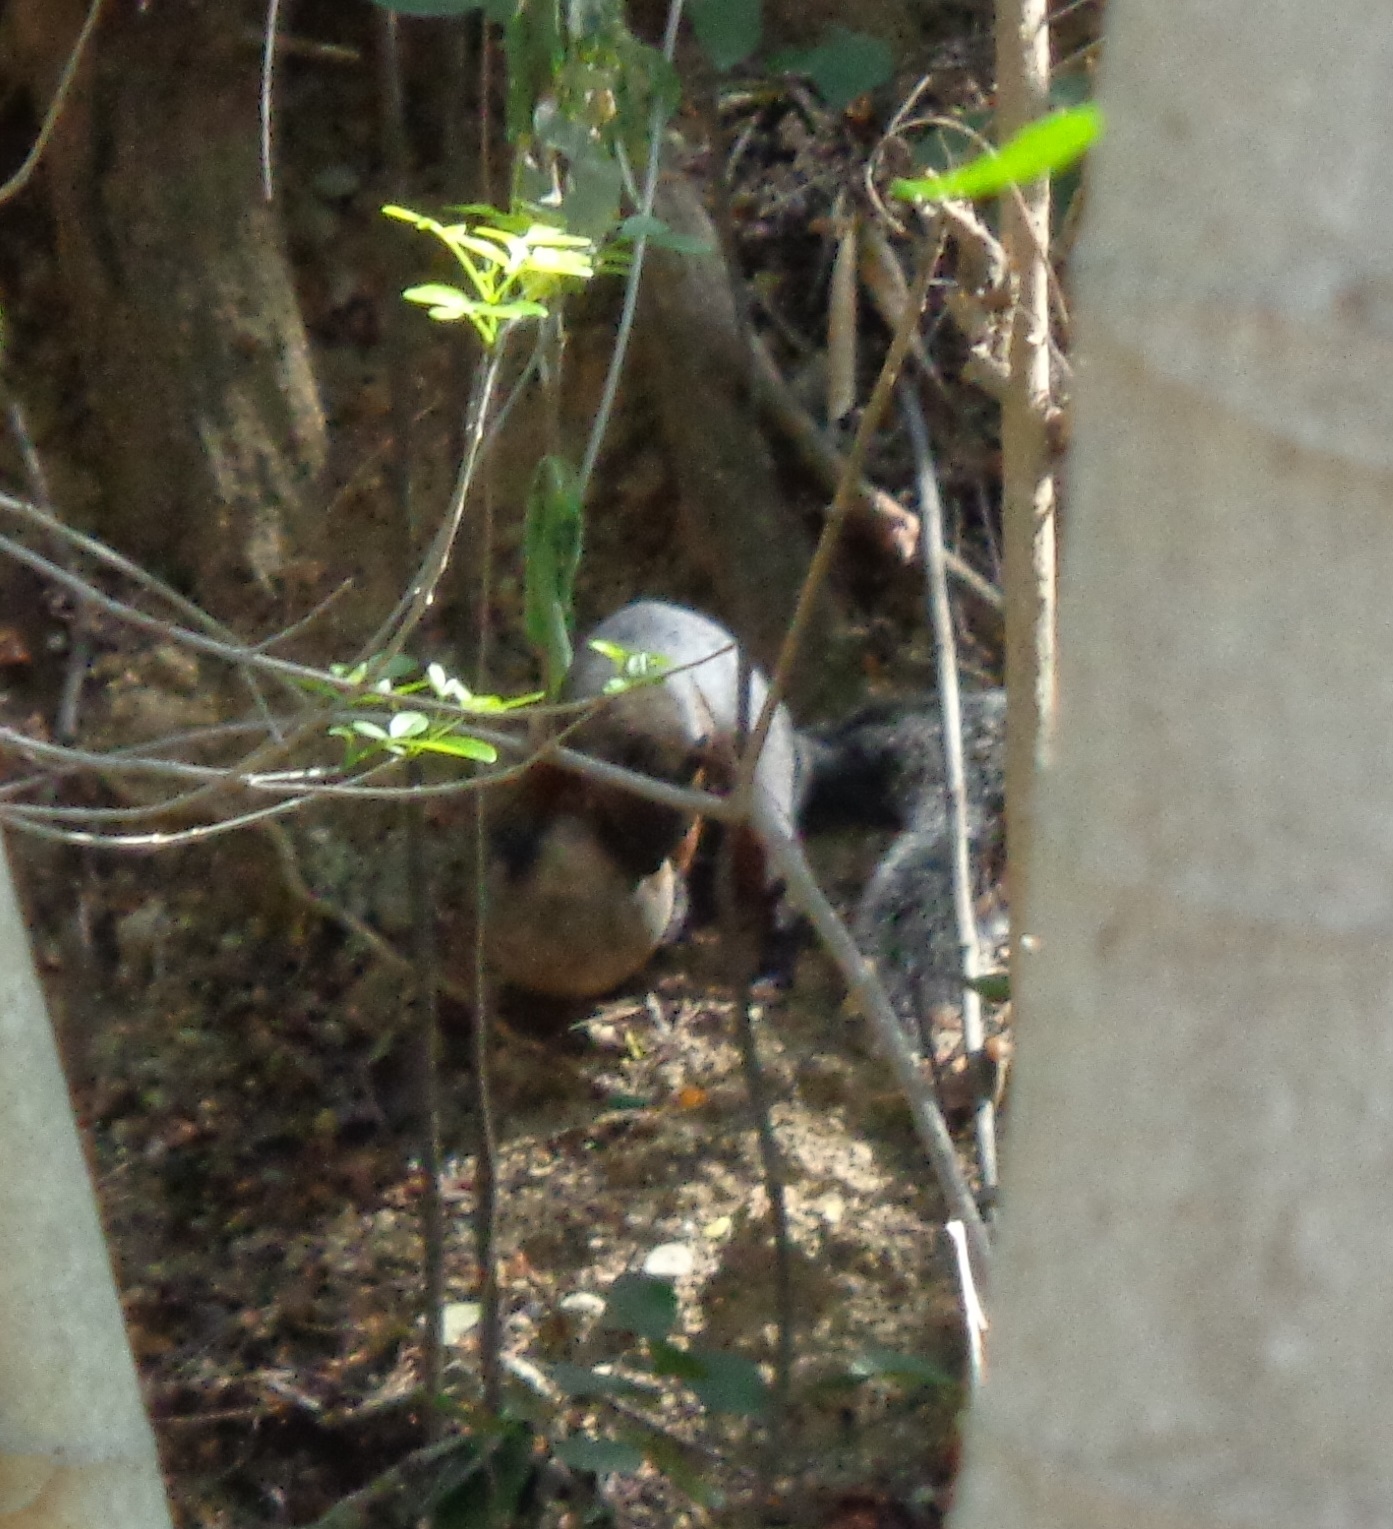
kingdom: Animalia
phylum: Chordata
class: Mammalia
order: Rodentia
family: Sciuridae
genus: Sciurus
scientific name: Sciurus aureogaster
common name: Red-bellied squirrel
